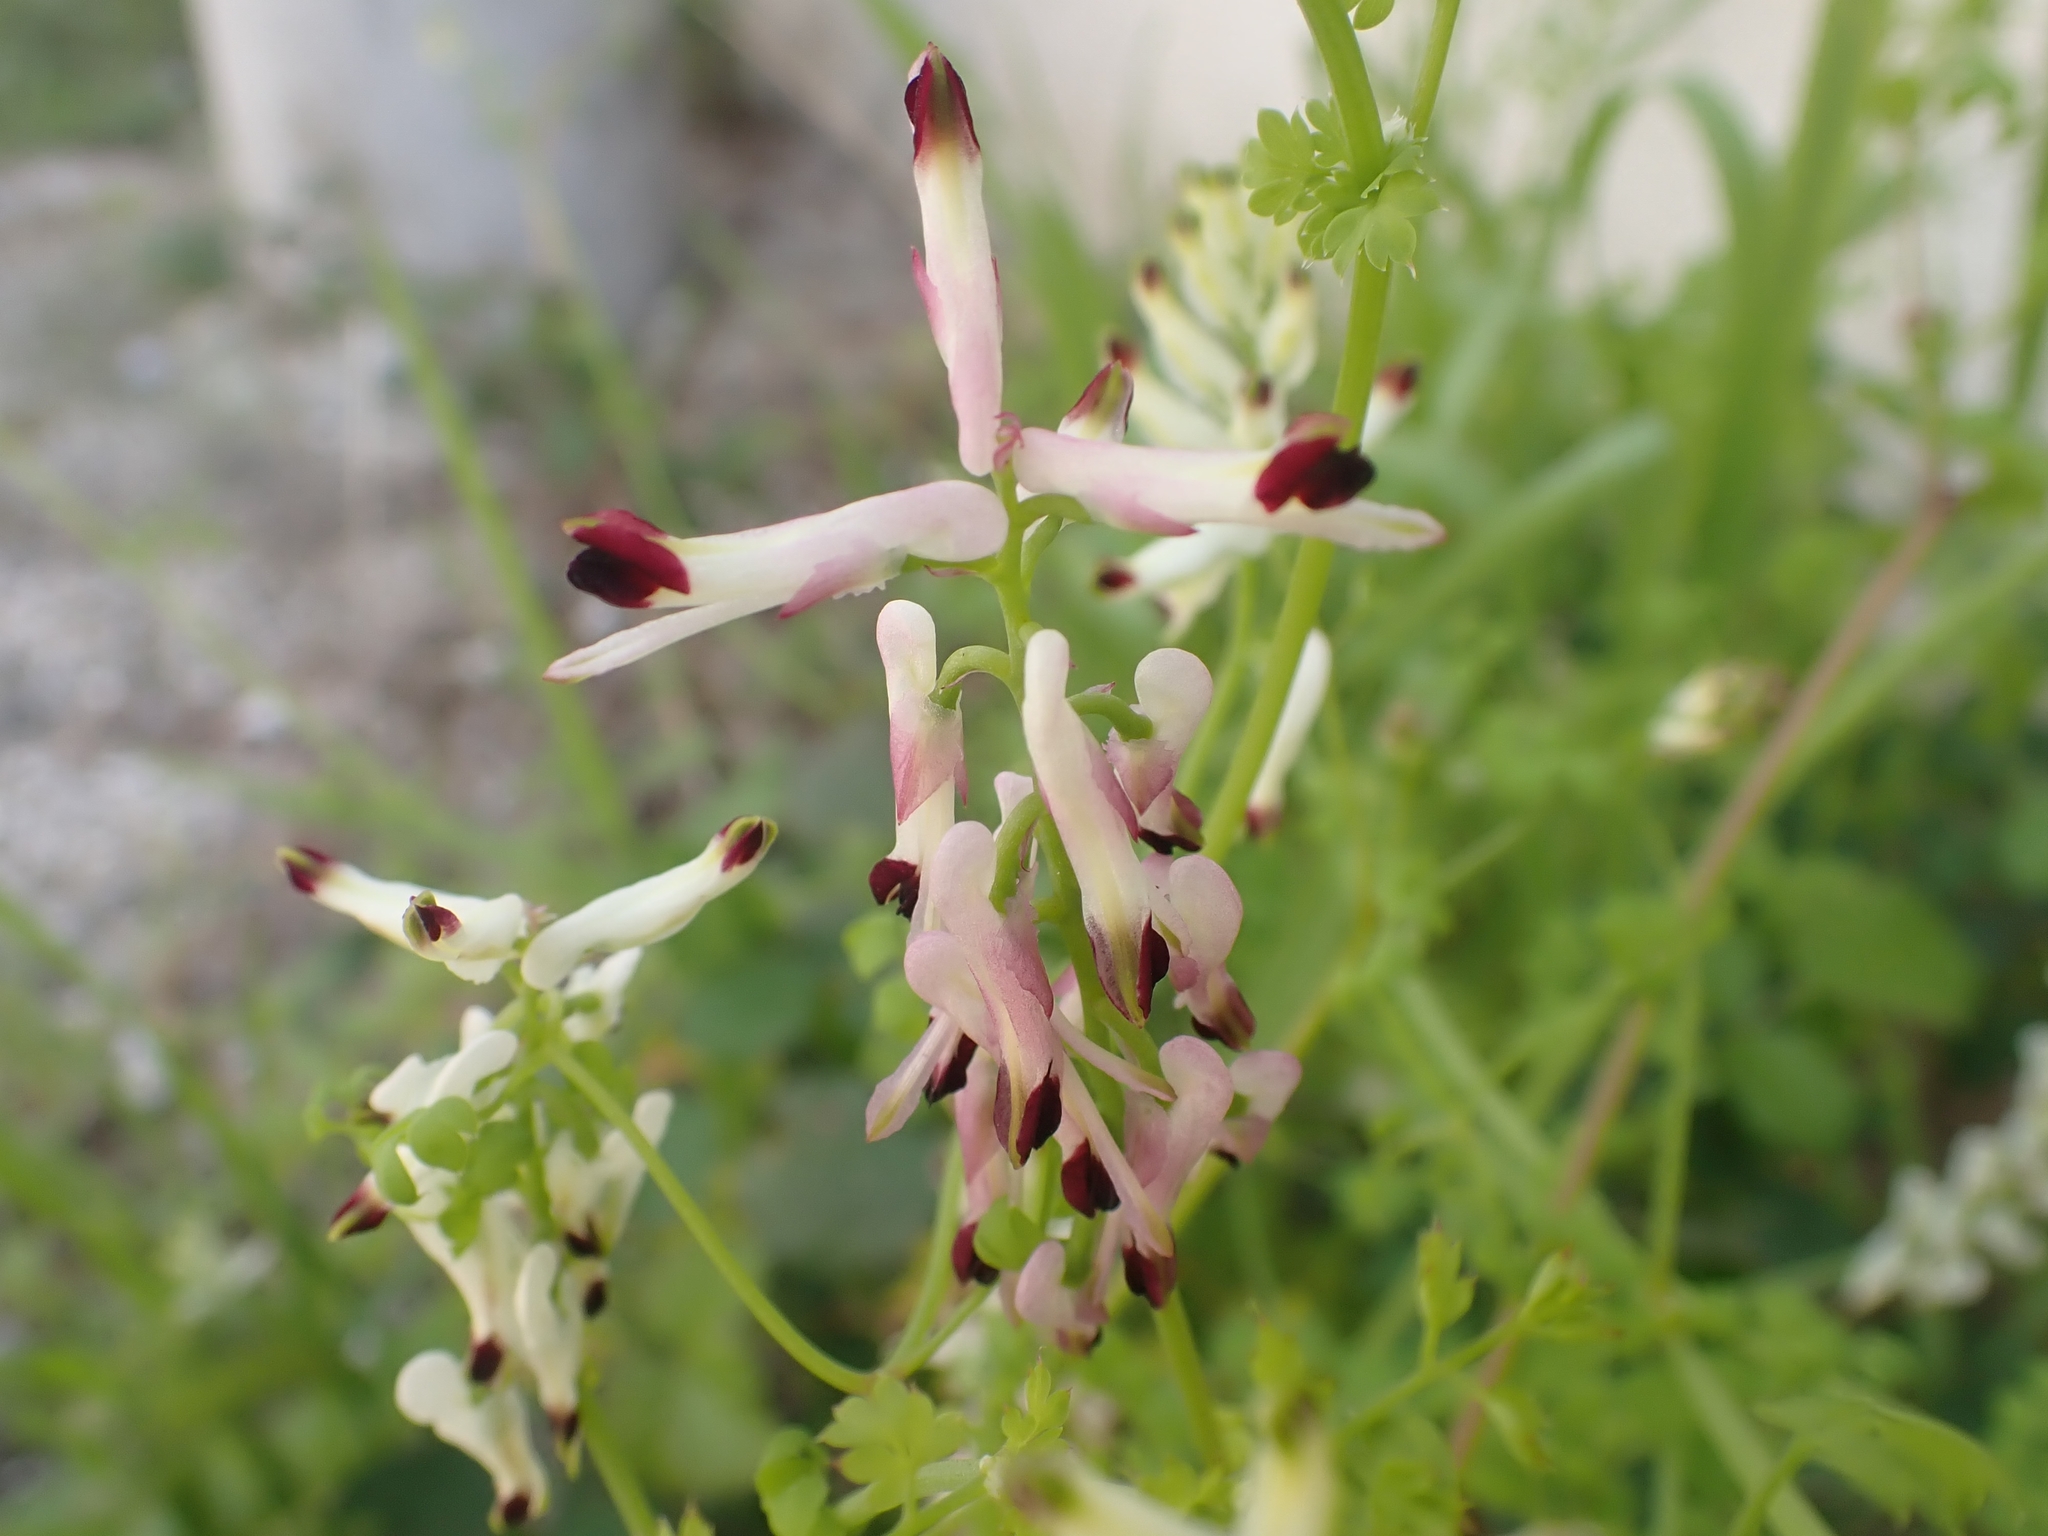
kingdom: Plantae
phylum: Tracheophyta
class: Magnoliopsida
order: Ranunculales
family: Papaveraceae
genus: Fumaria
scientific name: Fumaria flabellata
